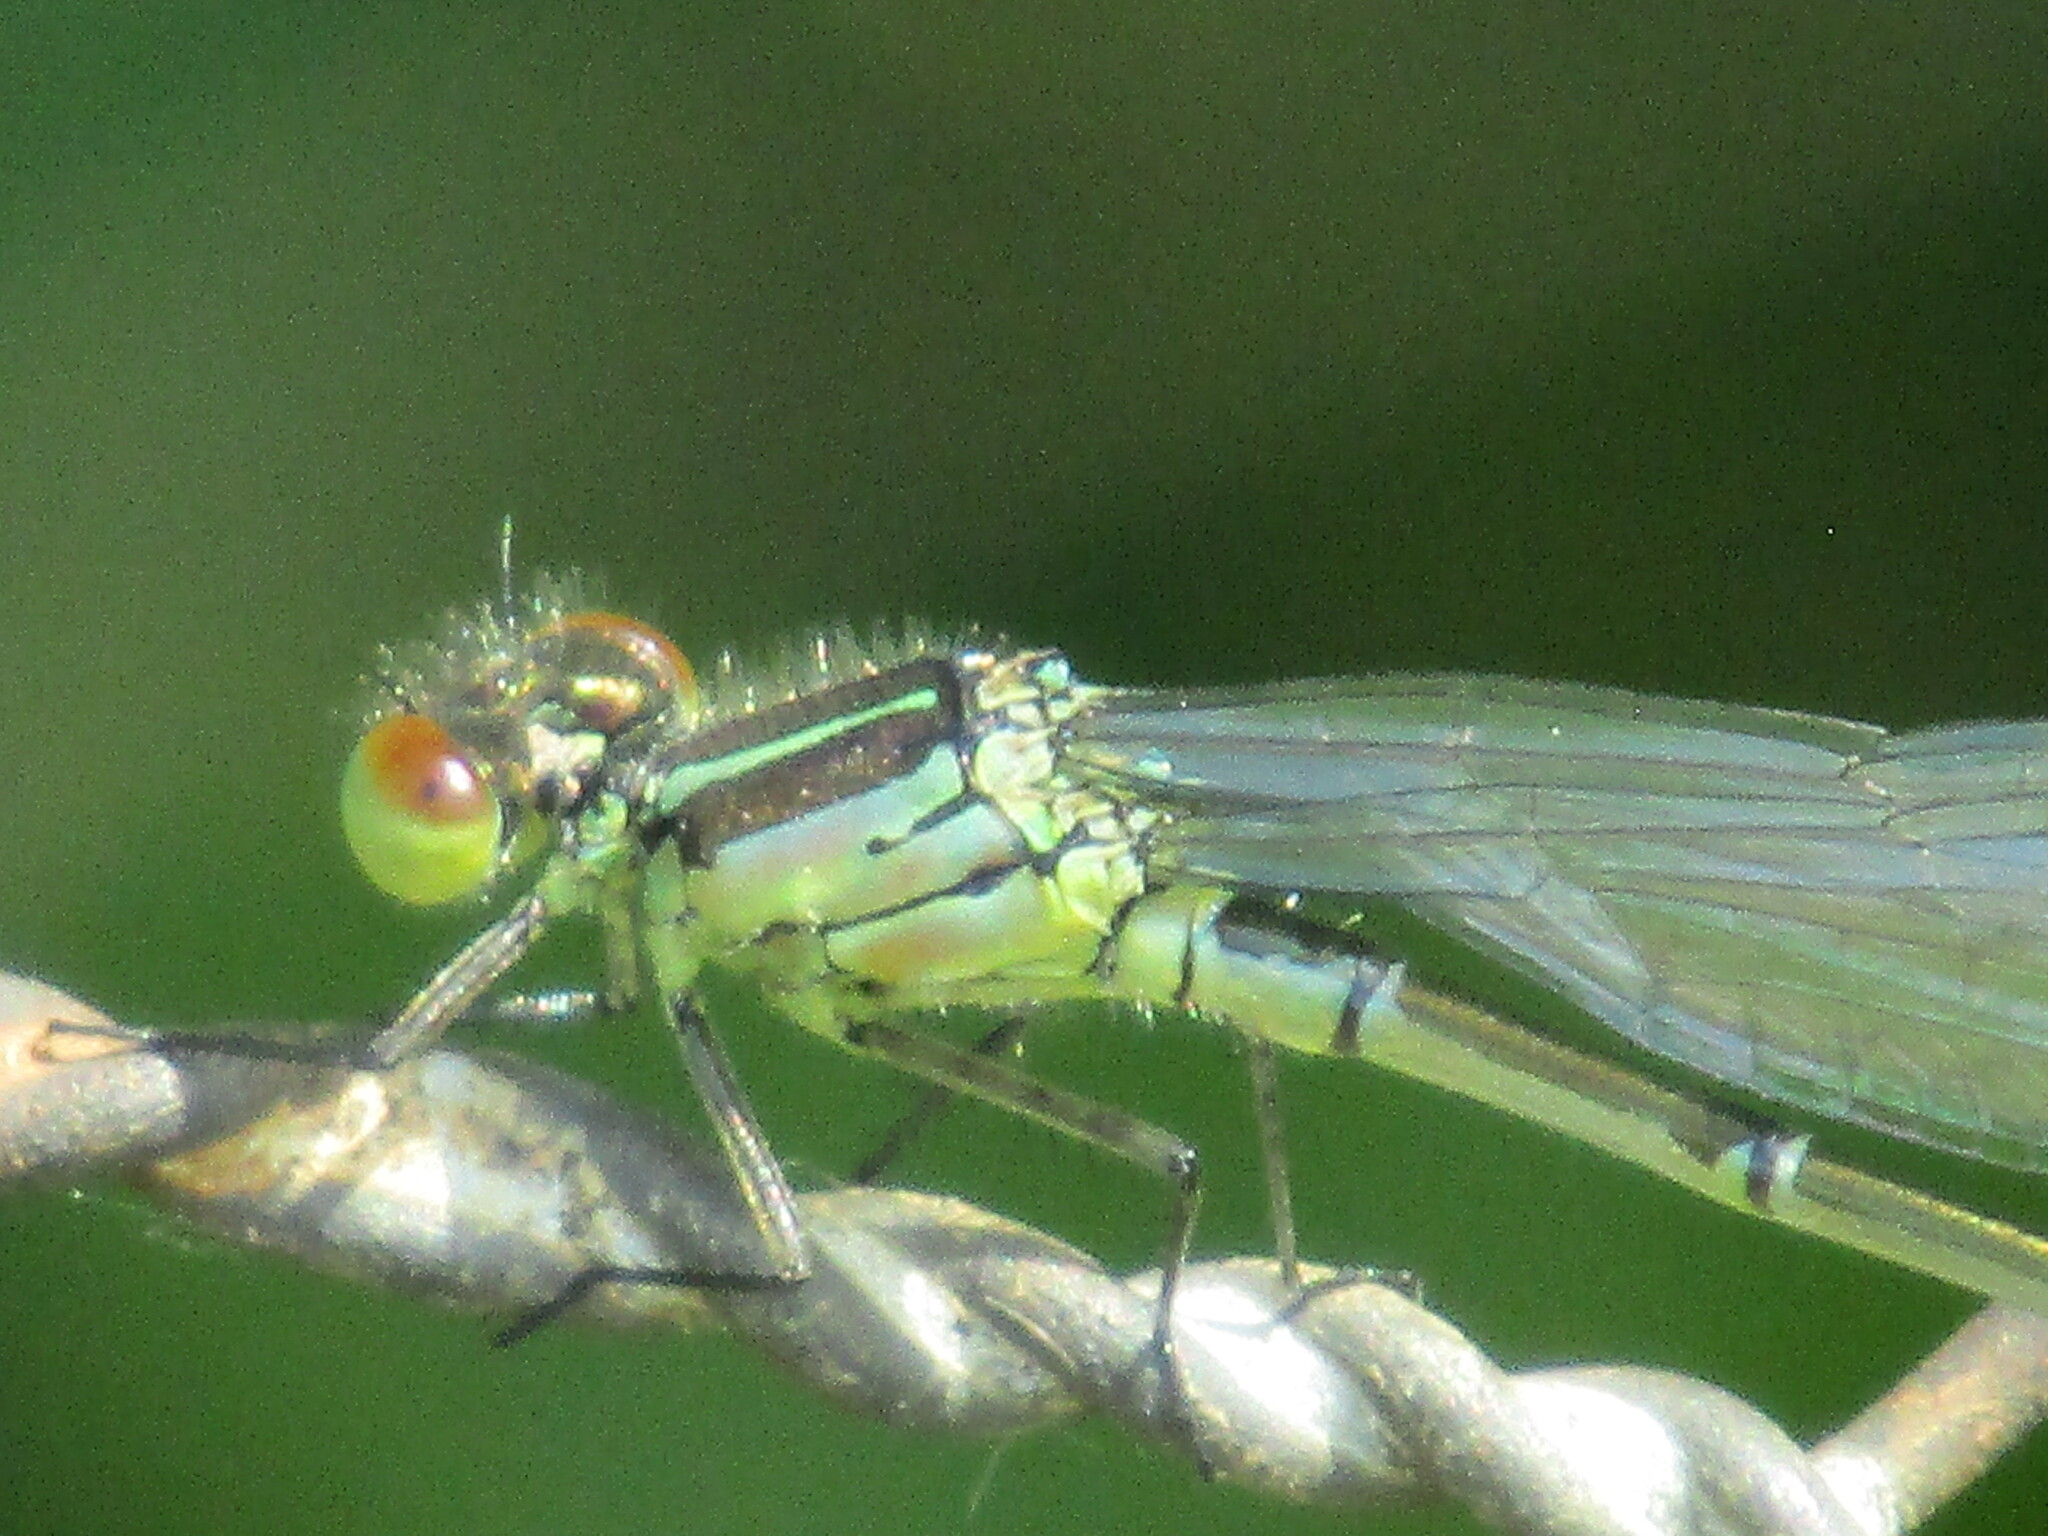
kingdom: Animalia
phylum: Arthropoda
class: Insecta
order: Odonata
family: Coenagrionidae
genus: Erythromma
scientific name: Erythromma viridulum
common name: Small red-eyed damselfly
